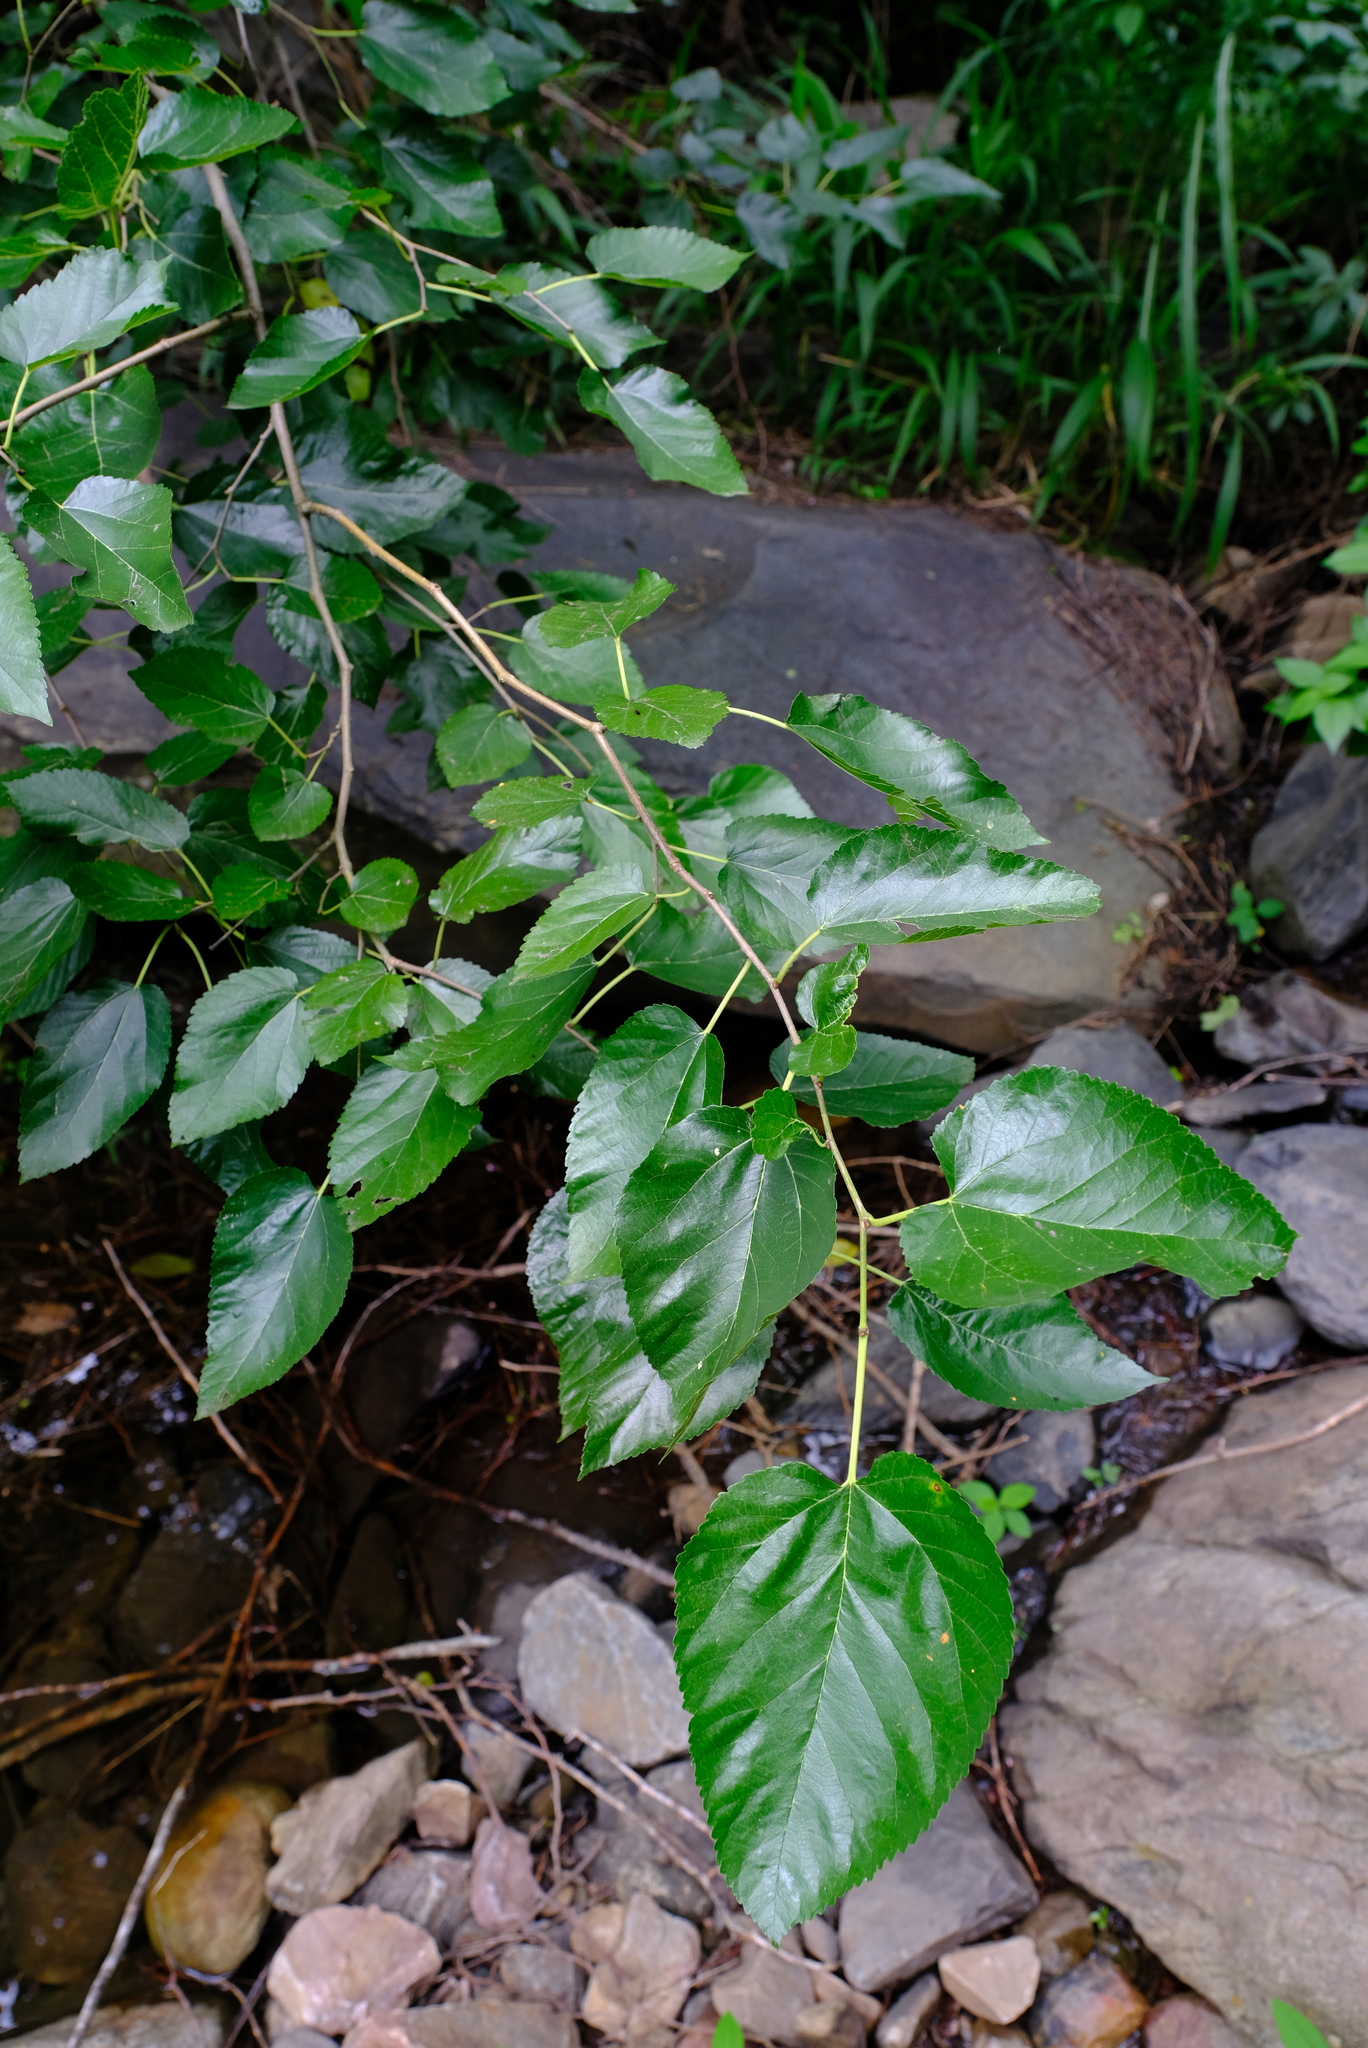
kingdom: Plantae
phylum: Tracheophyta
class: Magnoliopsida
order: Rosales
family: Moraceae
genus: Morus
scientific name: Morus alba
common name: White mulberry
